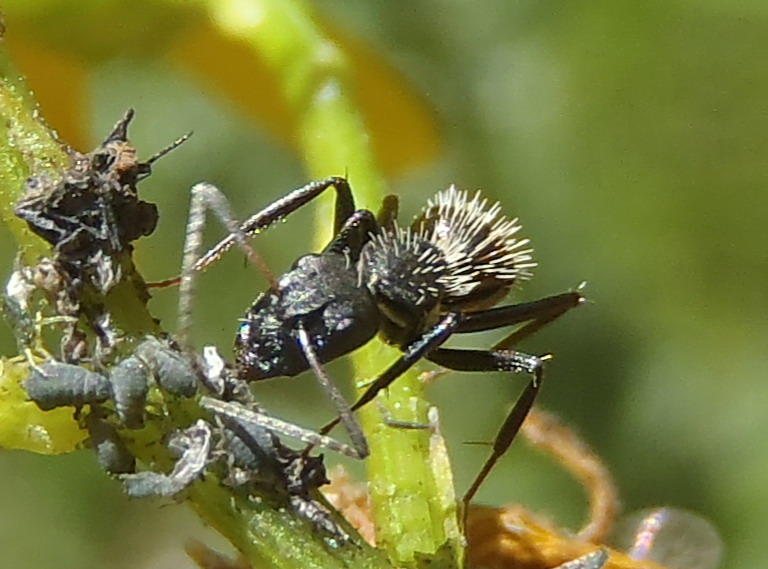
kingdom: Animalia
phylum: Arthropoda
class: Insecta
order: Hymenoptera
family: Formicidae
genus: Camponotus
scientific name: Camponotus niveosetosus
